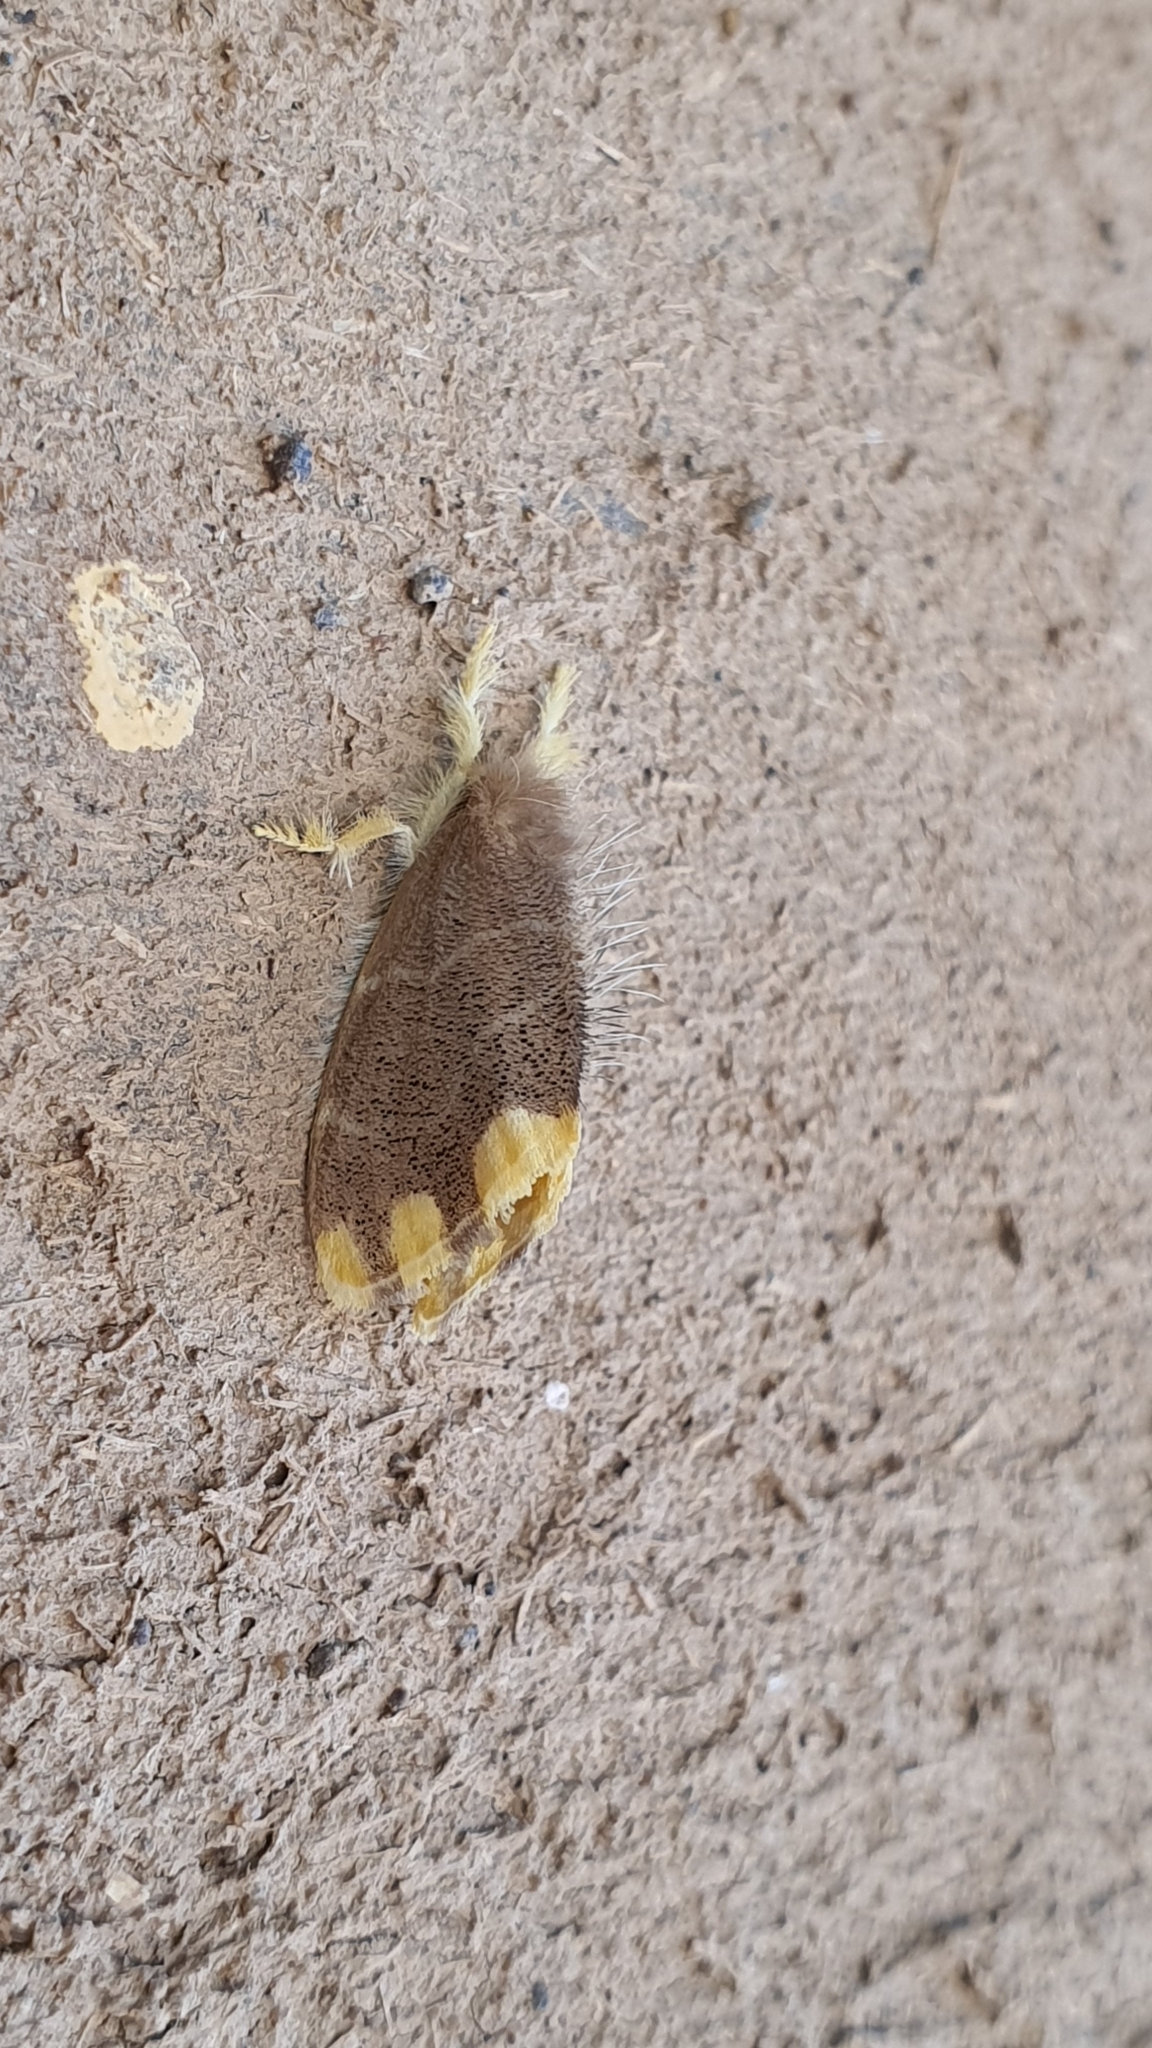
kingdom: Animalia
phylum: Arthropoda
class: Insecta
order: Lepidoptera
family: Erebidae
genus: Orvasca
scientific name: Orvasca subnotata
